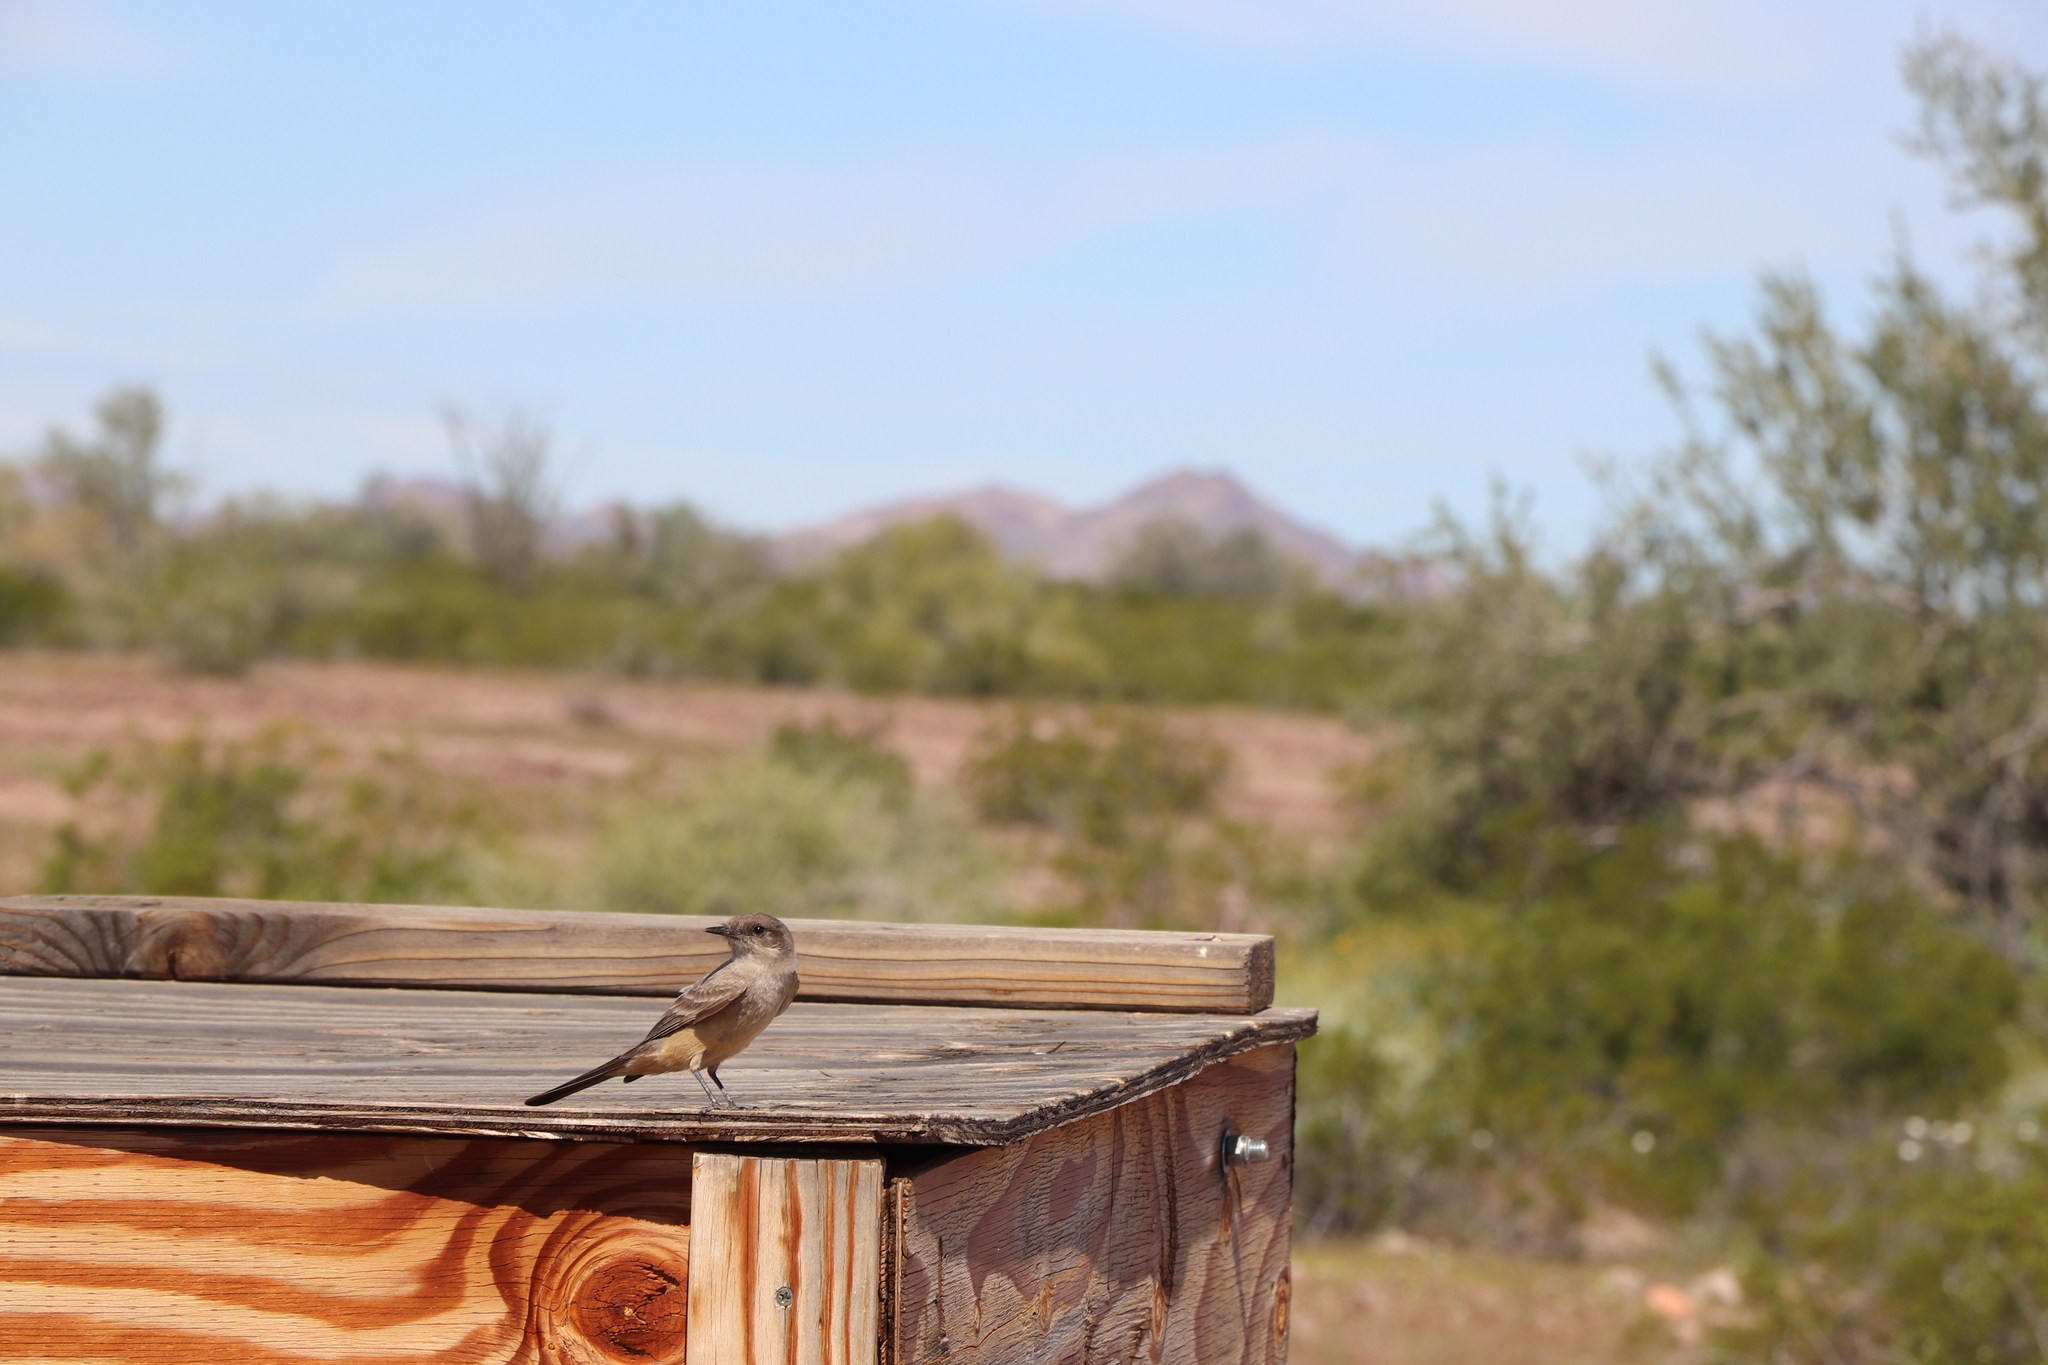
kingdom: Animalia
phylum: Chordata
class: Aves
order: Passeriformes
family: Tyrannidae
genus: Sayornis
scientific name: Sayornis saya
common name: Say's phoebe
